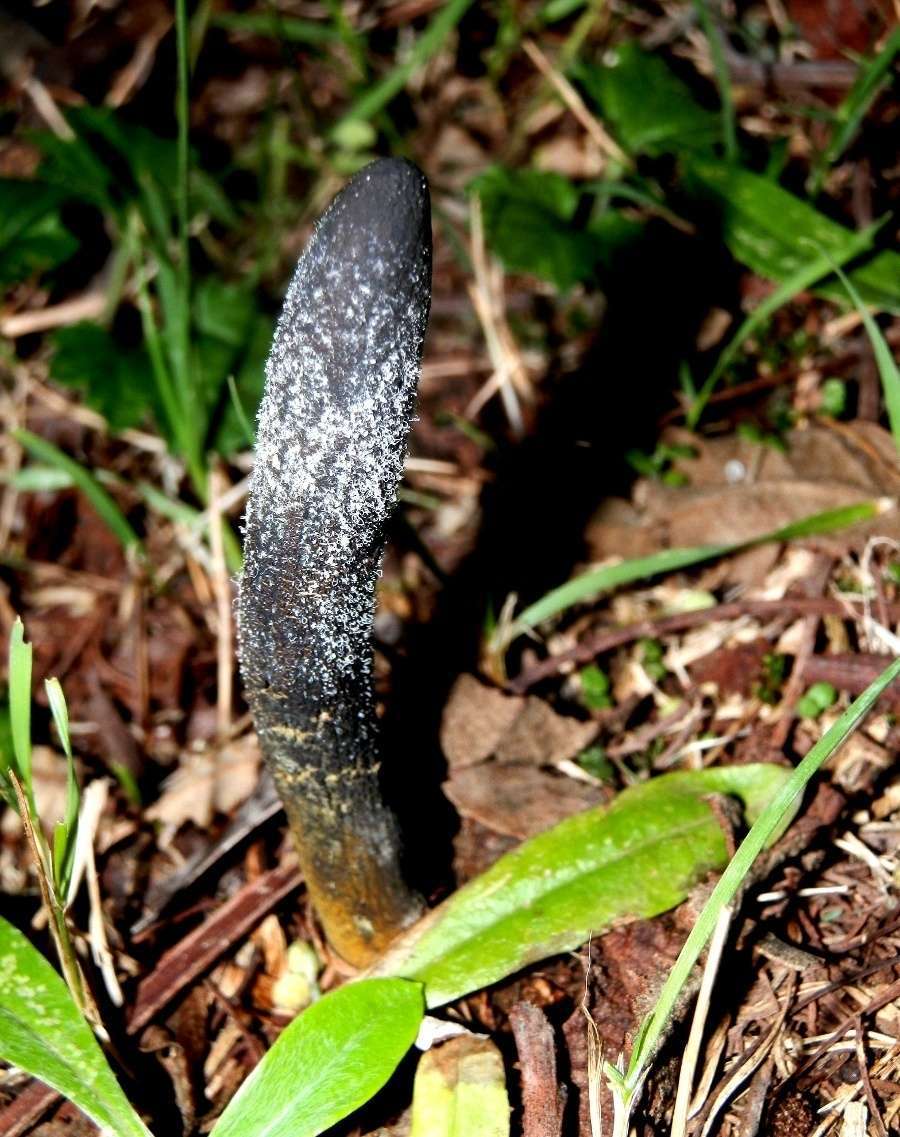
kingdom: Fungi
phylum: Ascomycota
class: Sordariomycetes
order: Hypocreales
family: Clavicipitaceae
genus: Drechmeria
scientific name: Drechmeria gunnii
